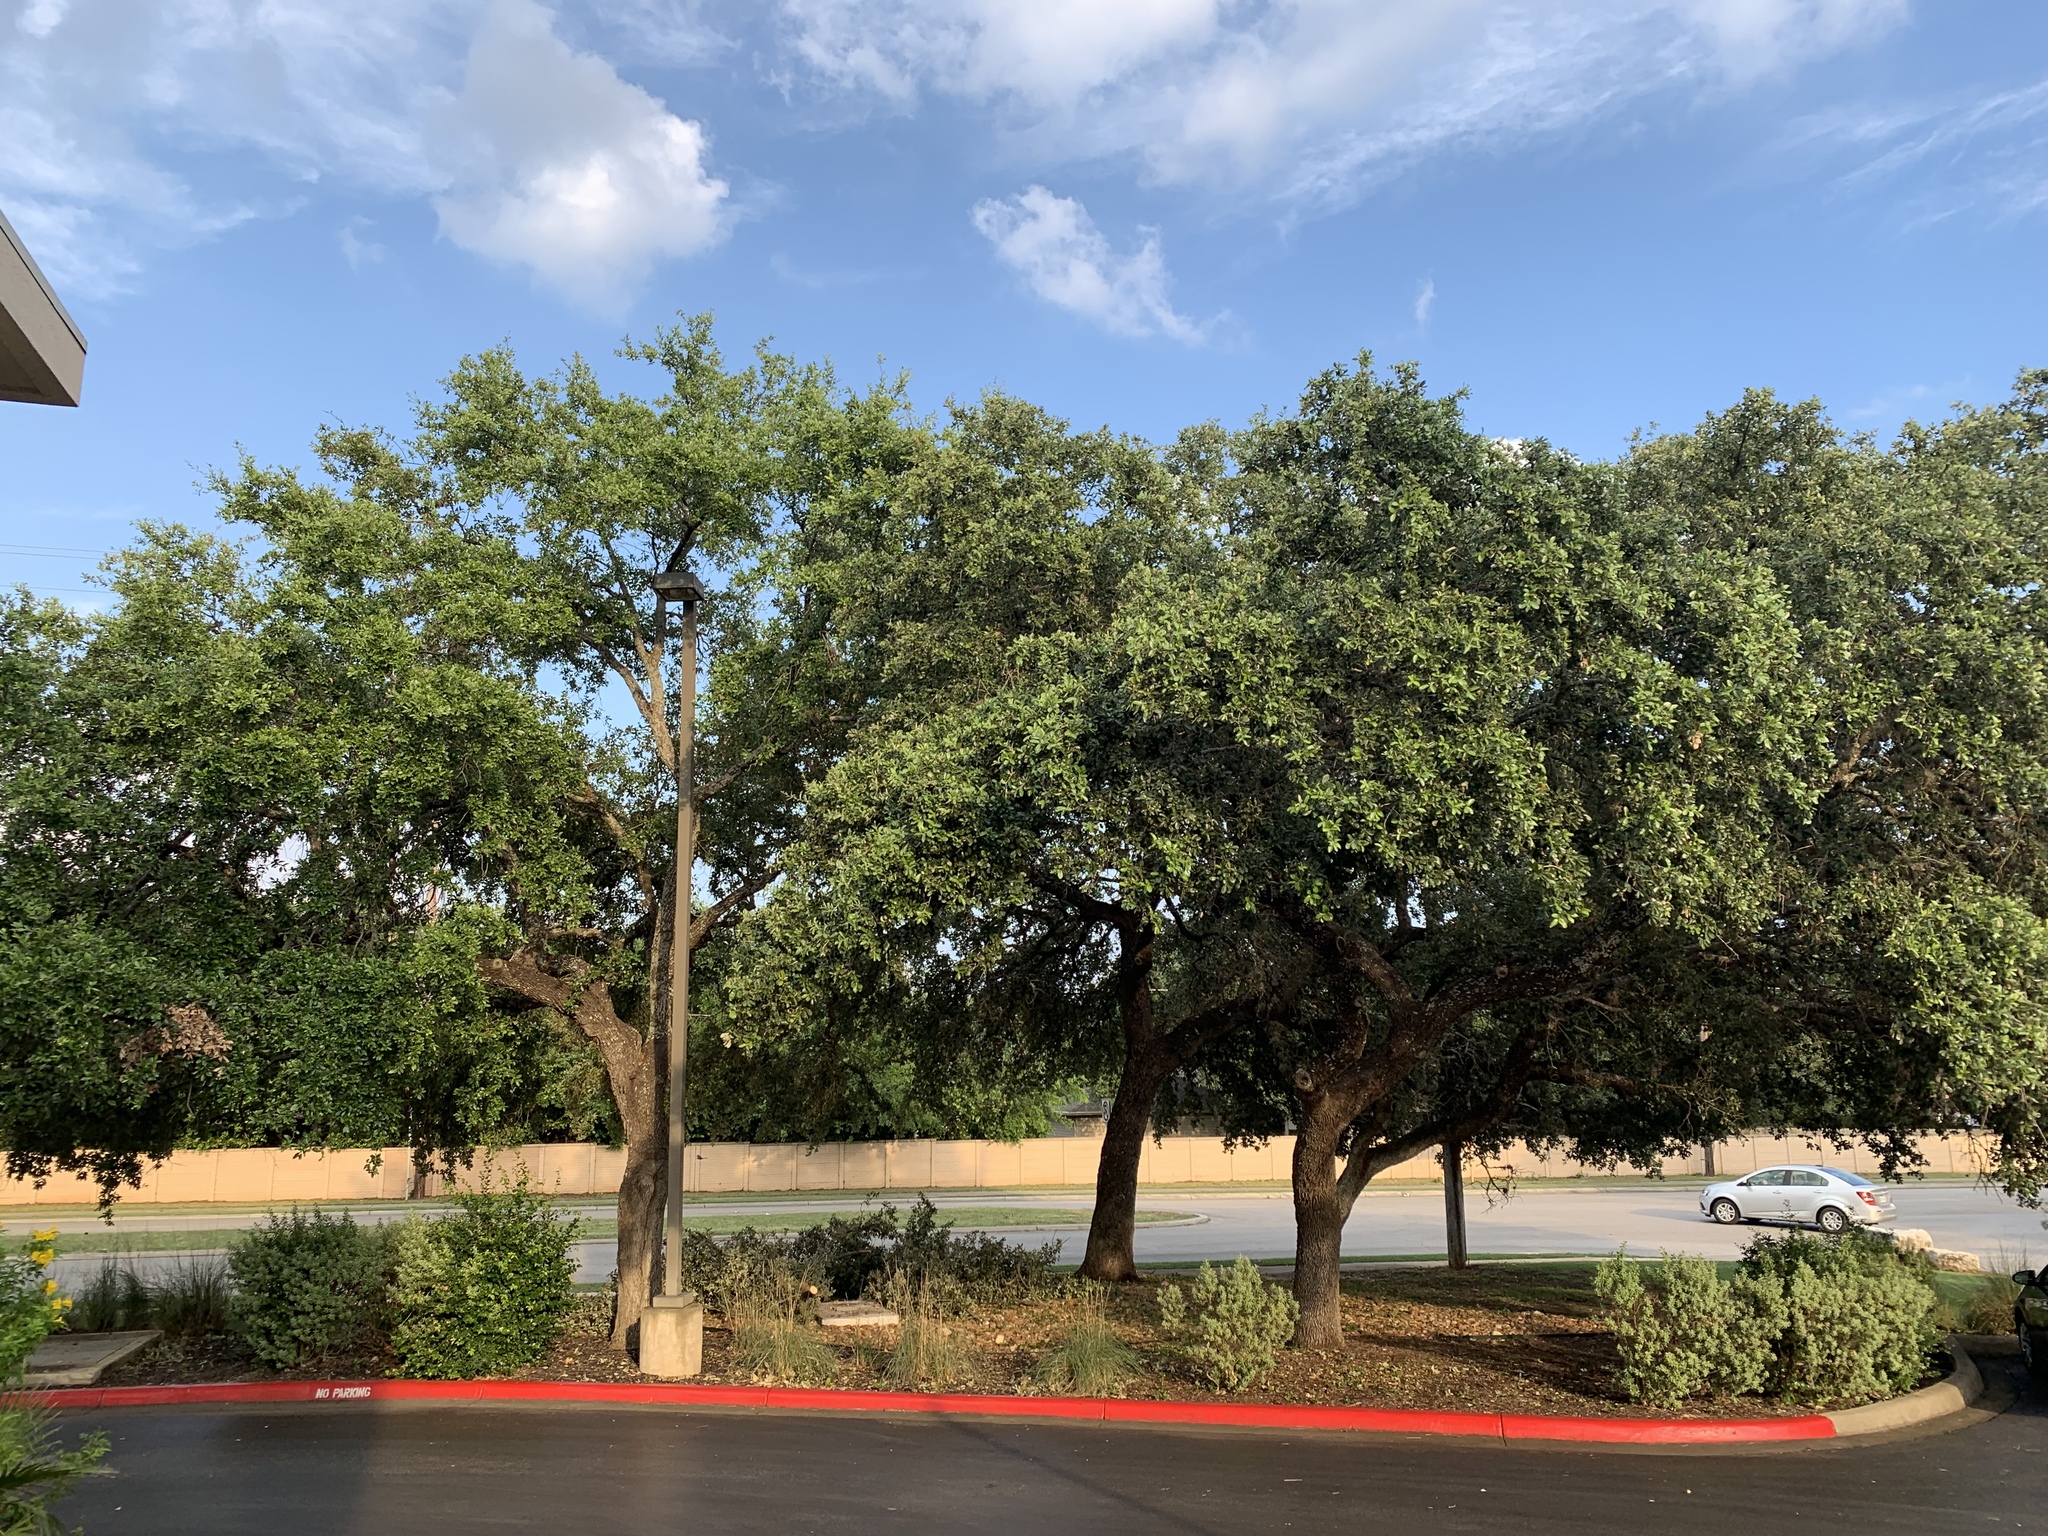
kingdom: Plantae
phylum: Tracheophyta
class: Magnoliopsida
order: Fagales
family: Fagaceae
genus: Quercus
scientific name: Quercus fusiformis
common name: Texas live oak
